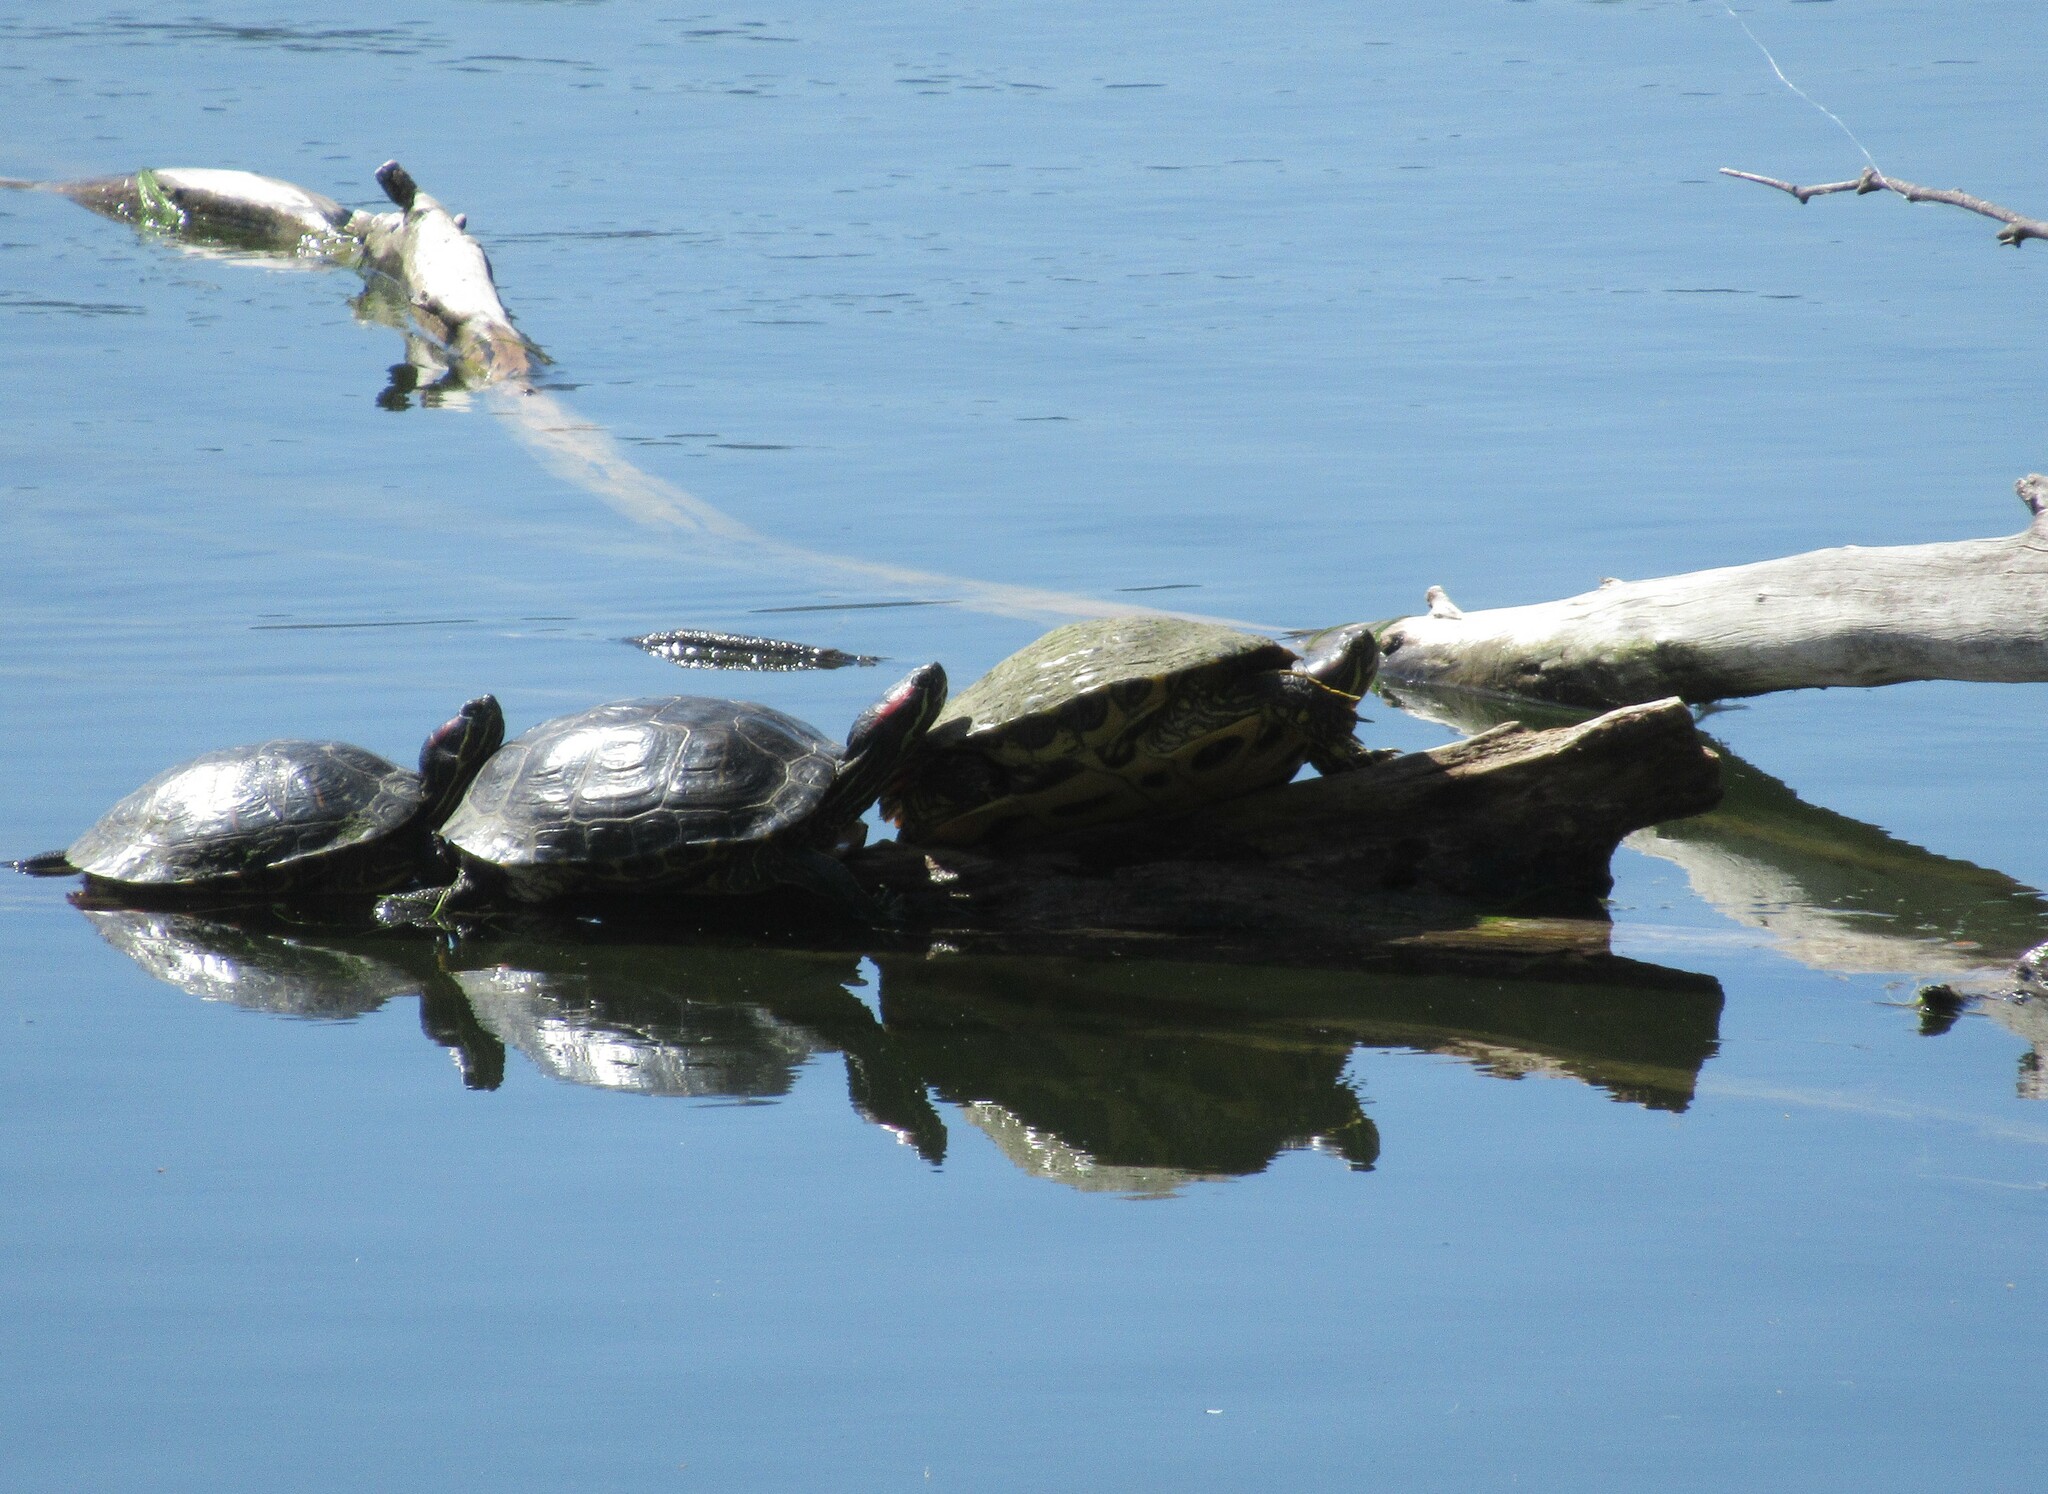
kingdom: Animalia
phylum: Chordata
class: Testudines
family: Emydidae
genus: Trachemys
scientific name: Trachemys scripta
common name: Slider
